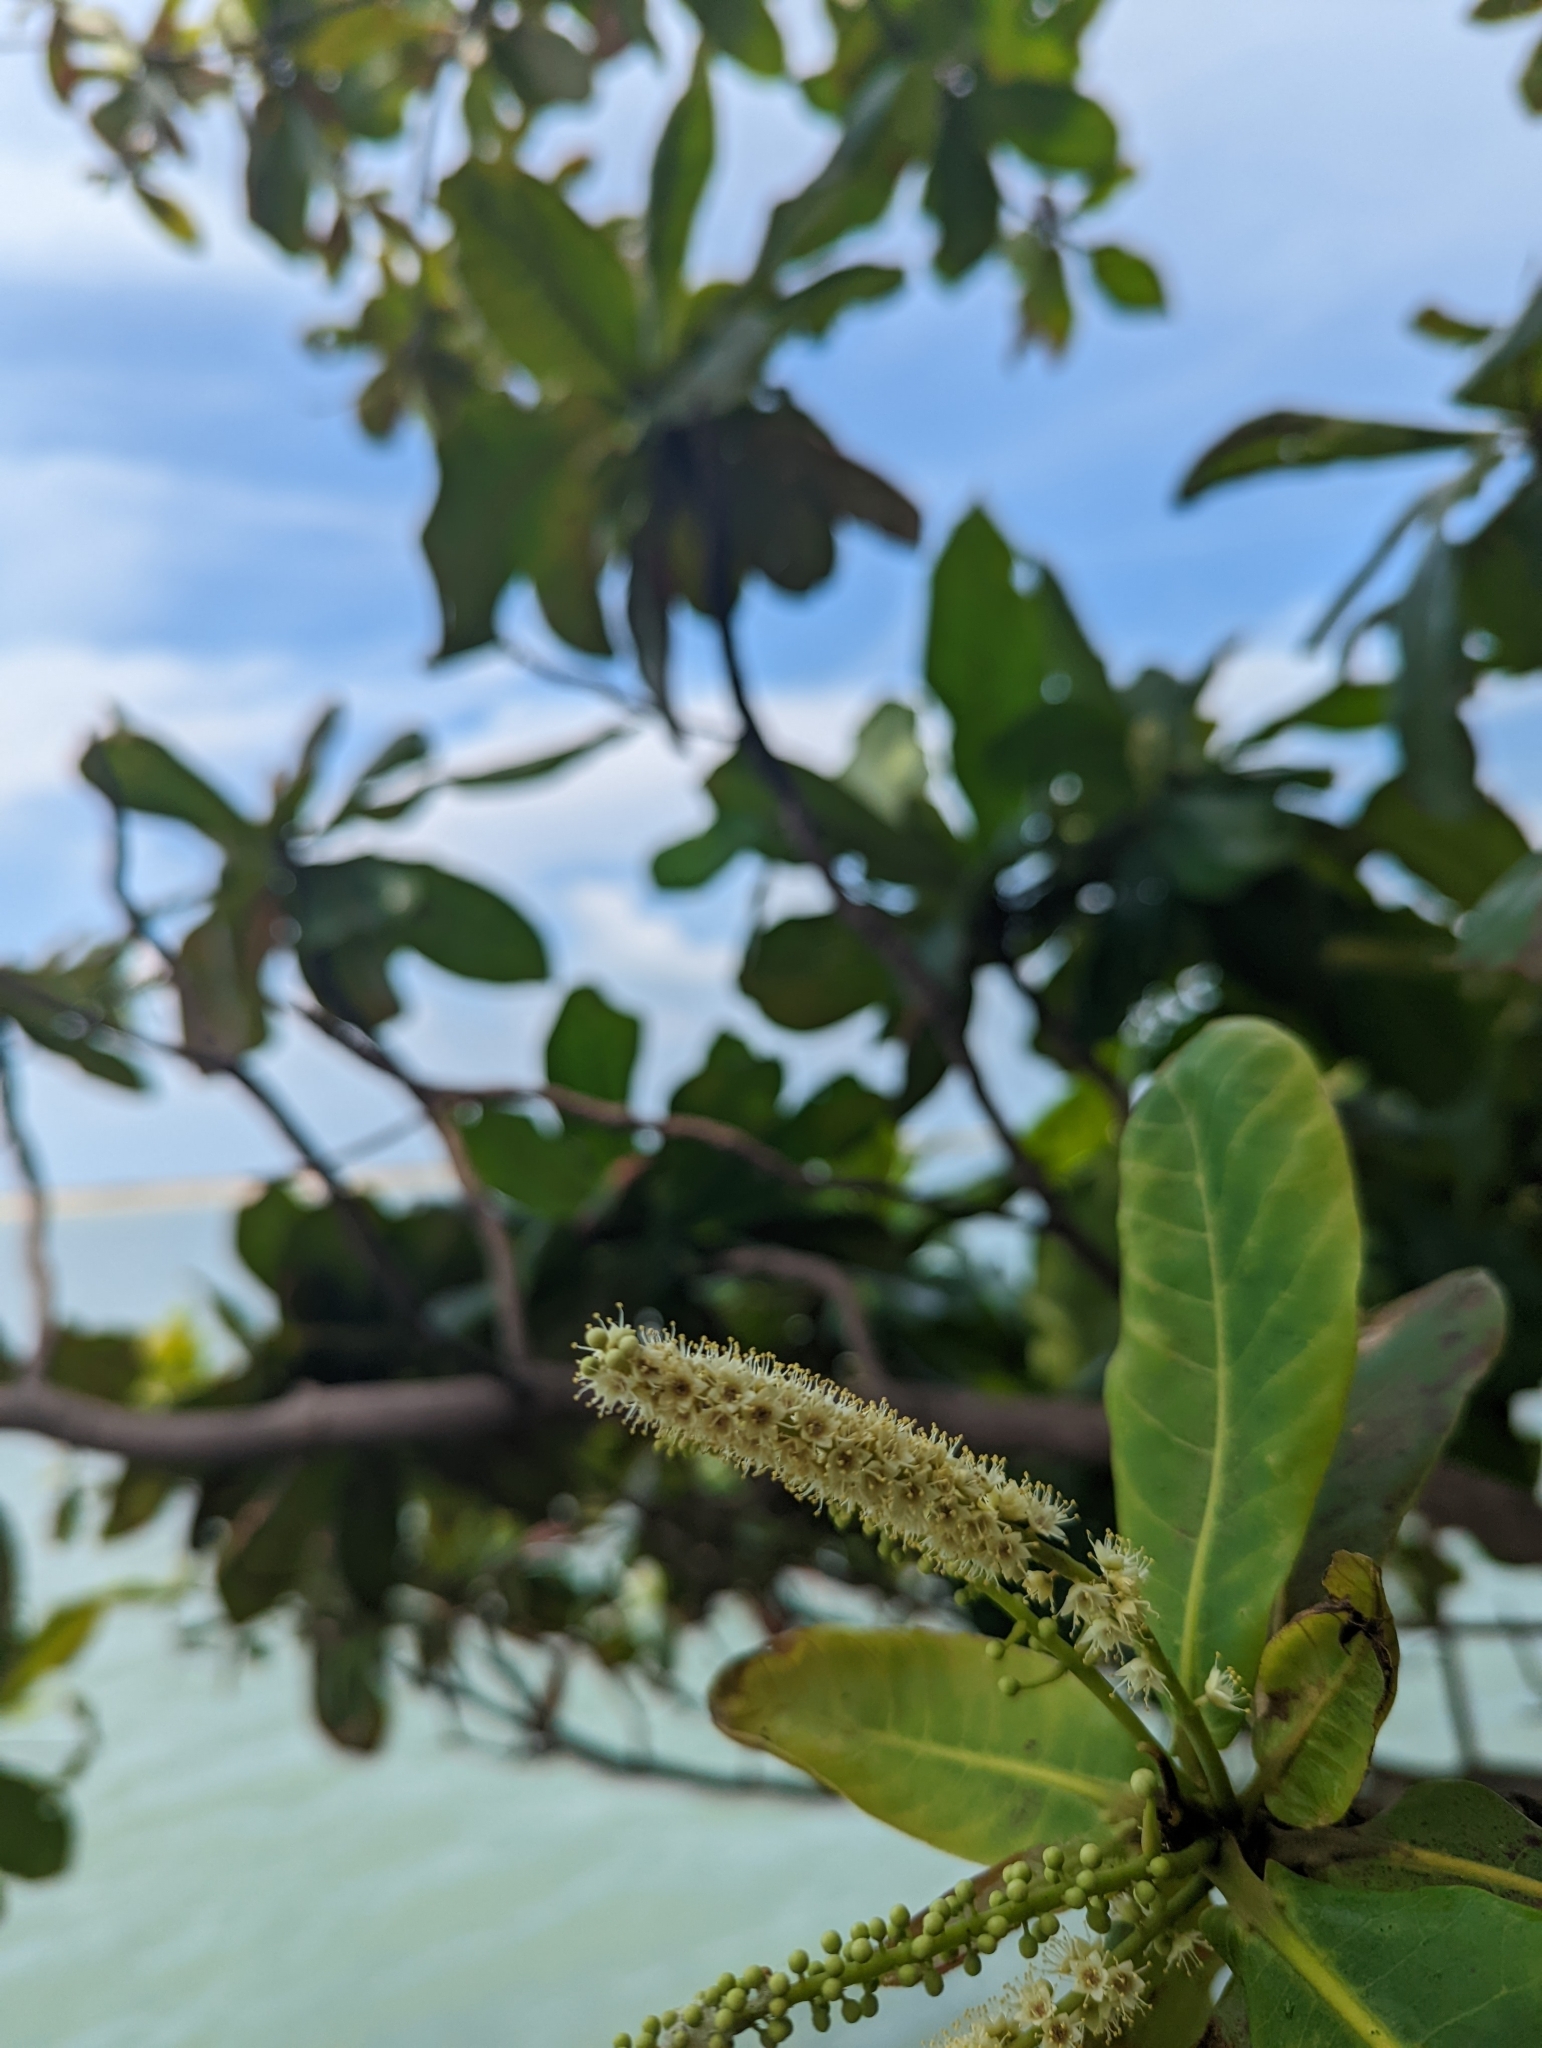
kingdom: Plantae
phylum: Tracheophyta
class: Magnoliopsida
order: Myrtales
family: Combretaceae
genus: Terminalia
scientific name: Terminalia catappa
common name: Tropical almond
